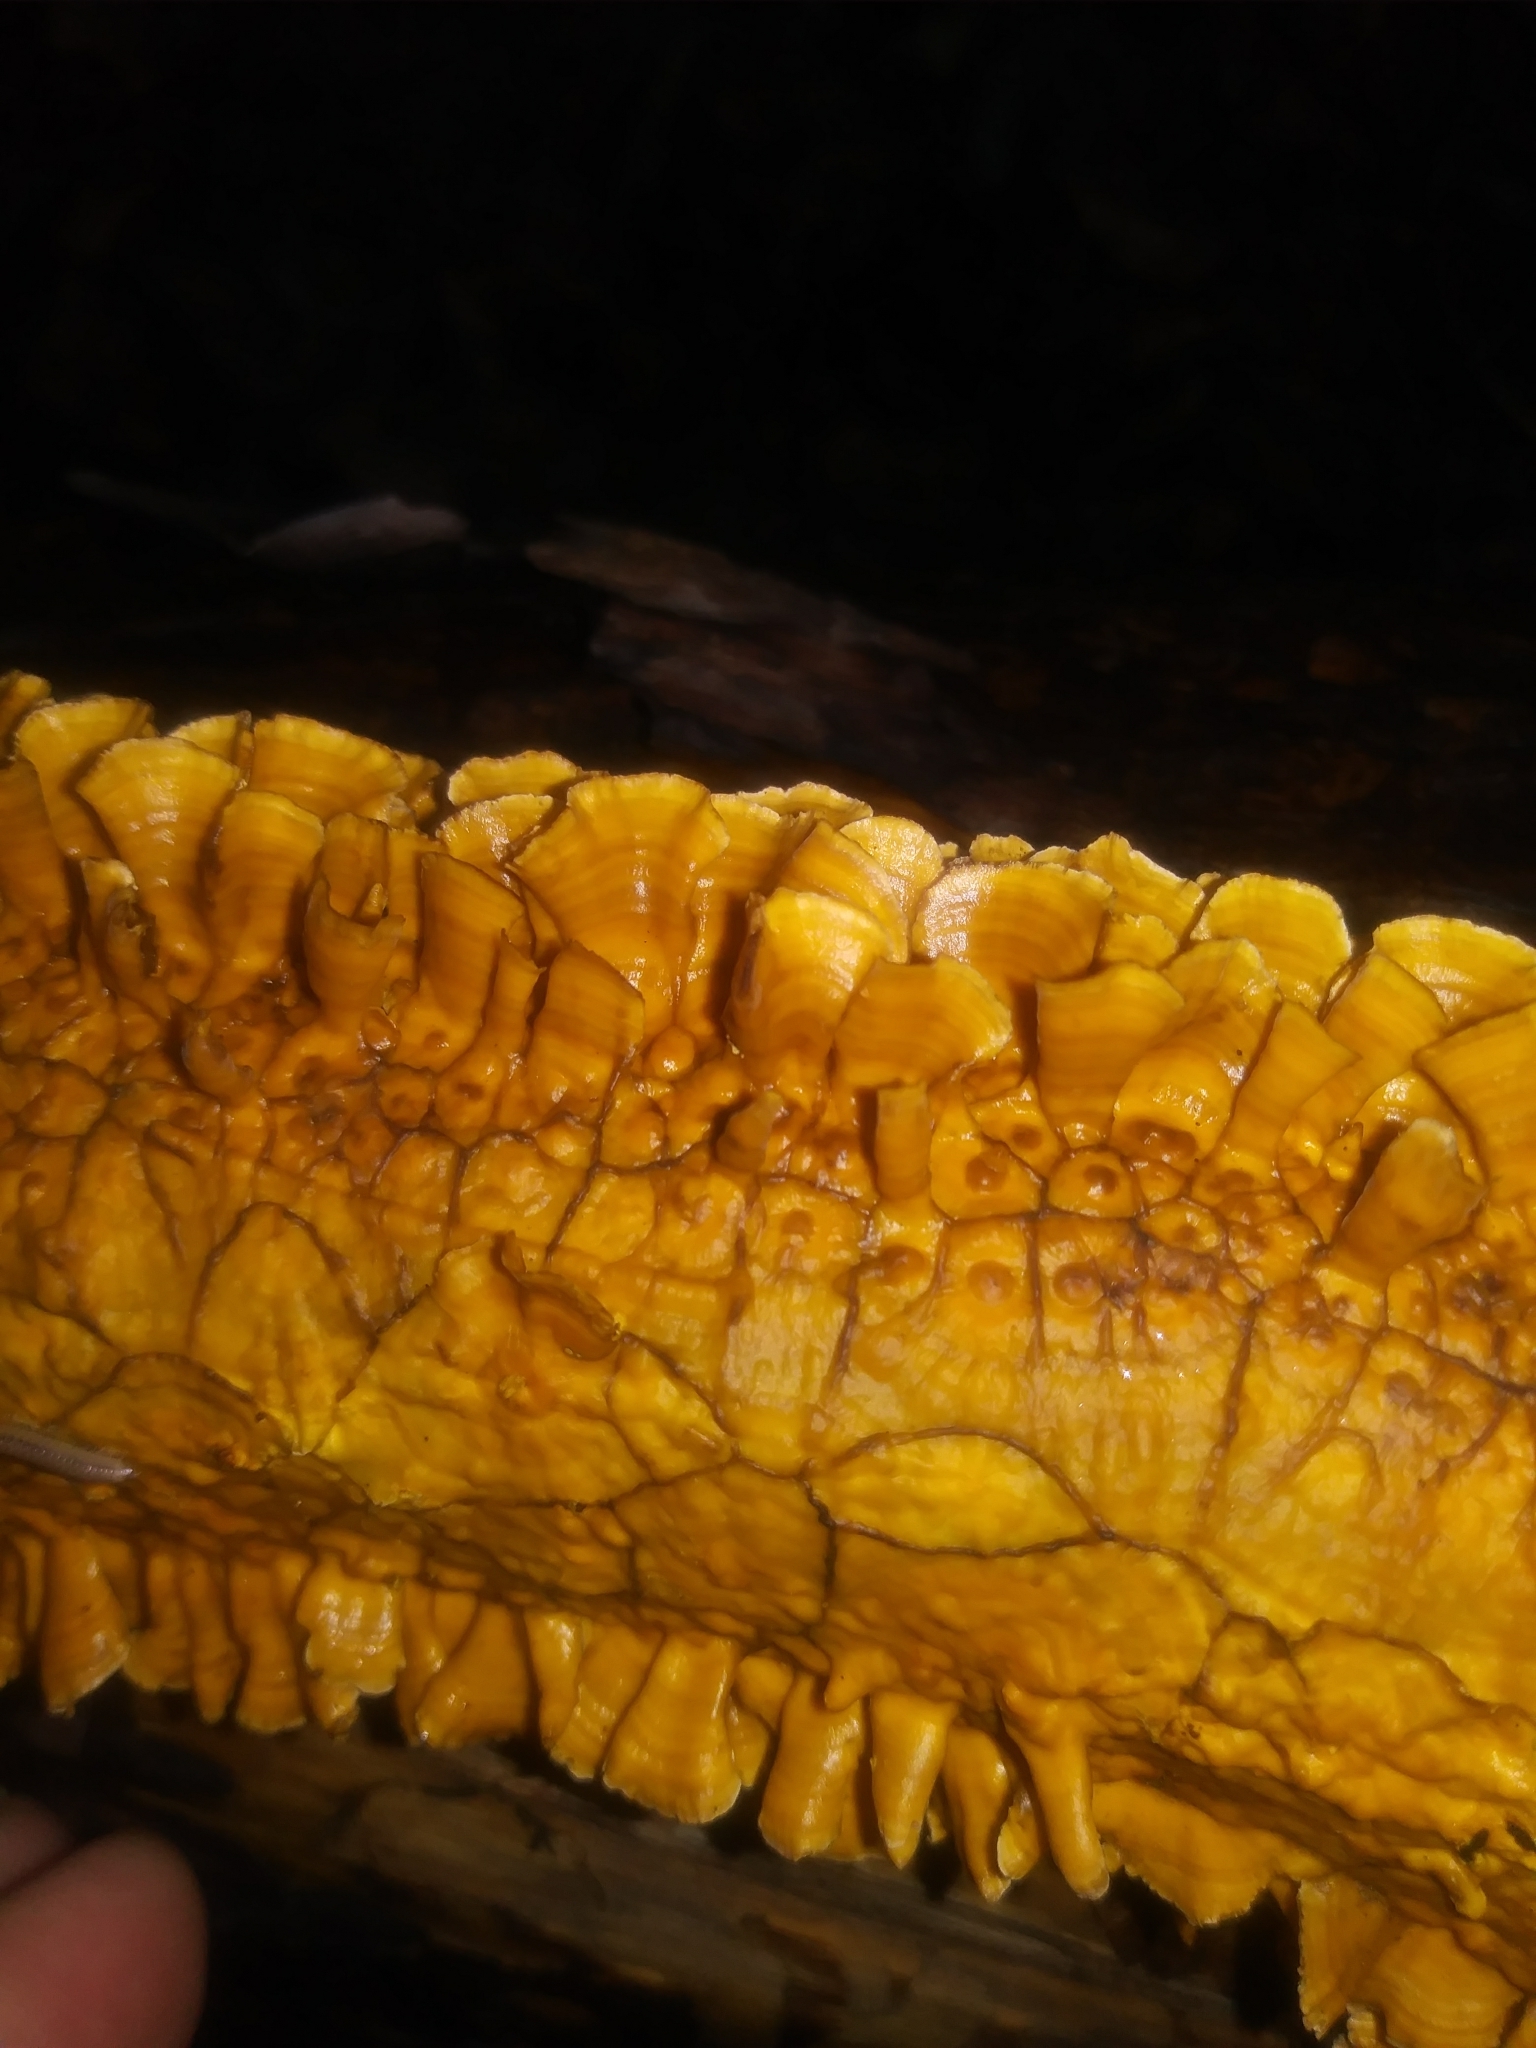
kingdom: Fungi
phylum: Basidiomycota
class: Agaricomycetes
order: Russulales
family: Stereaceae
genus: Stereum
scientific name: Stereum complicatum
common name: Crowded parchment
